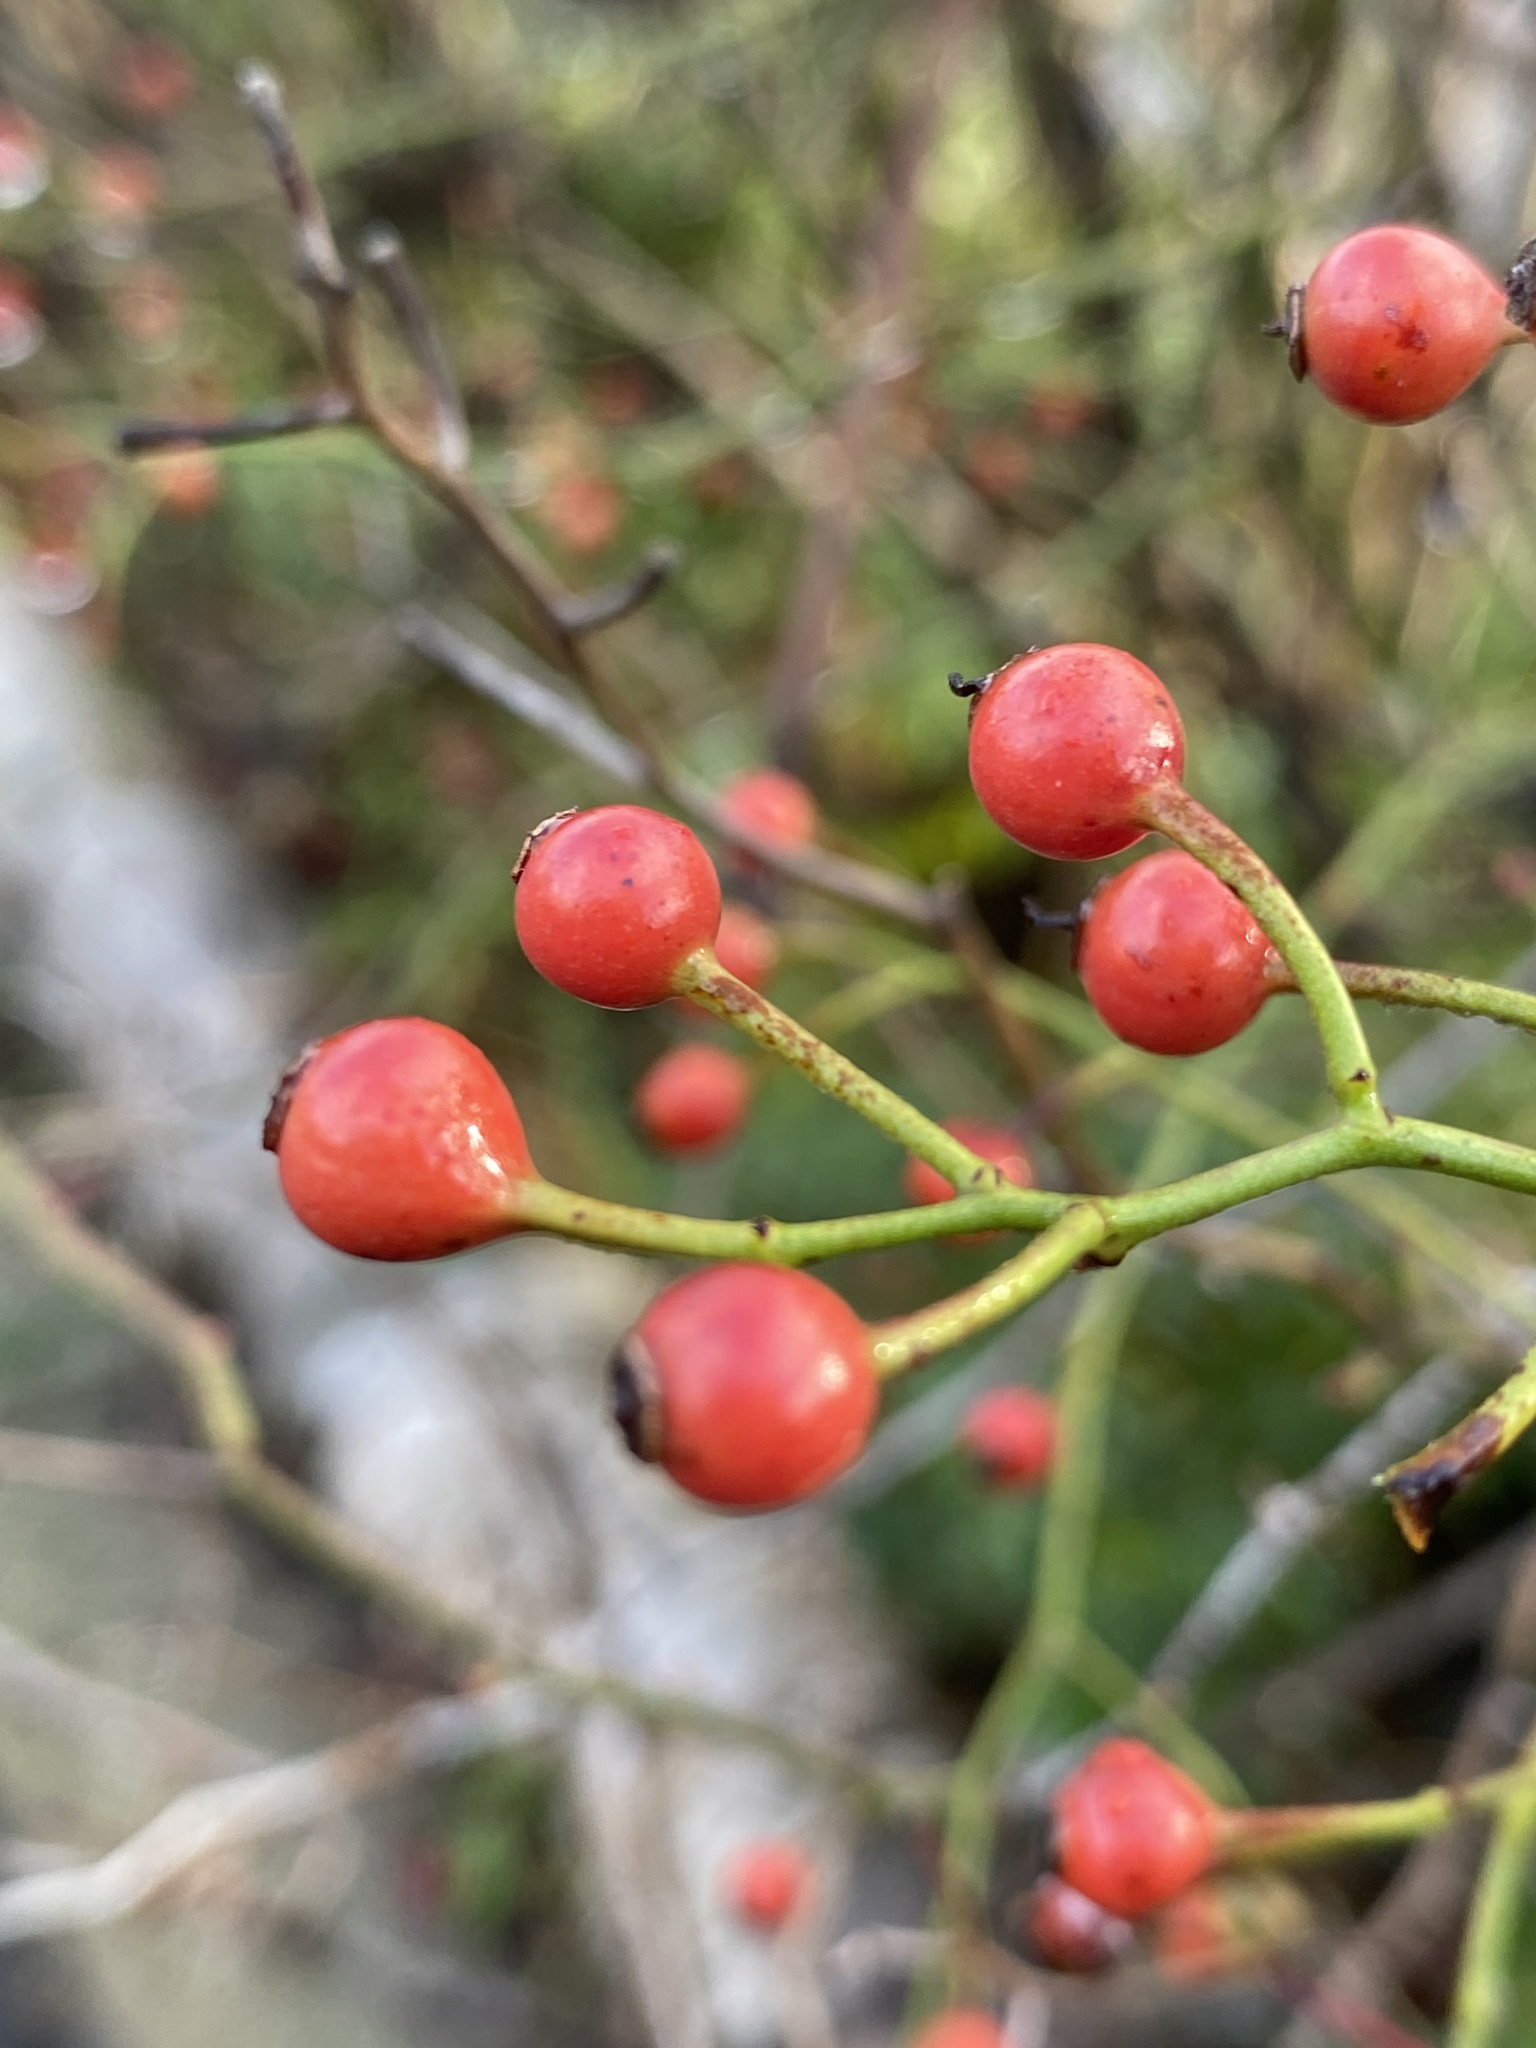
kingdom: Plantae
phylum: Tracheophyta
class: Magnoliopsida
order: Rosales
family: Rosaceae
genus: Rosa
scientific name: Rosa multiflora
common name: Multiflora rose
